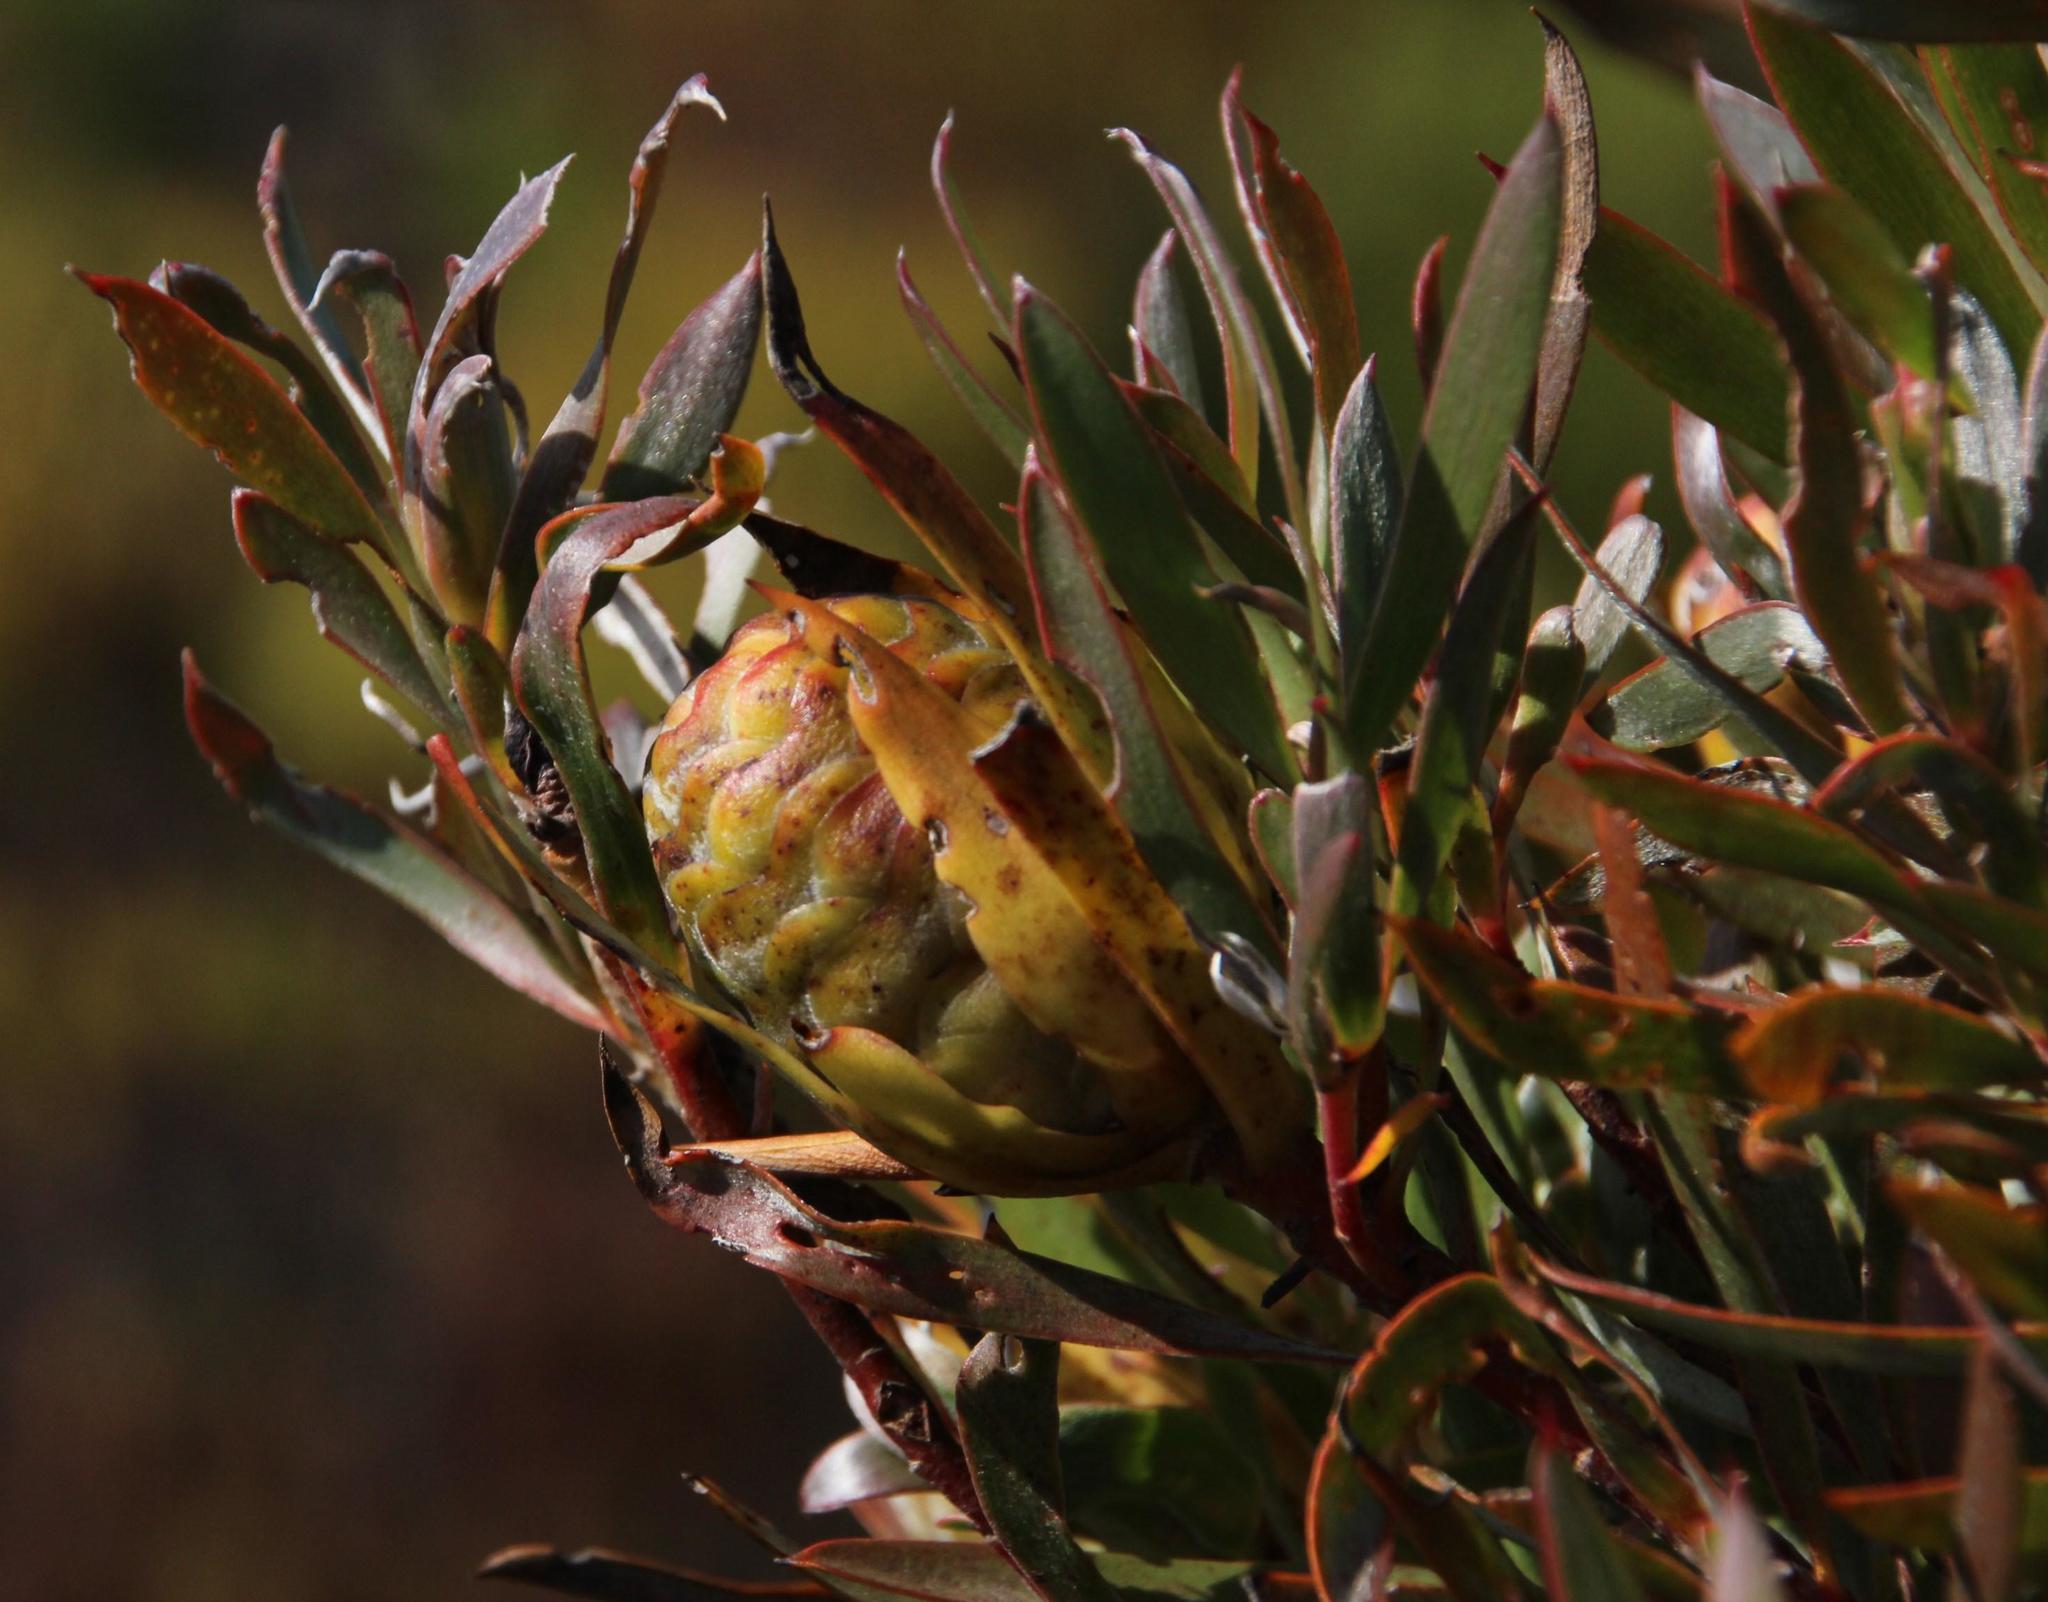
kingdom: Plantae
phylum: Tracheophyta
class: Magnoliopsida
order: Proteales
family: Proteaceae
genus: Leucadendron
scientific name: Leucadendron xanthoconus
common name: Sickle-leaf conebush
